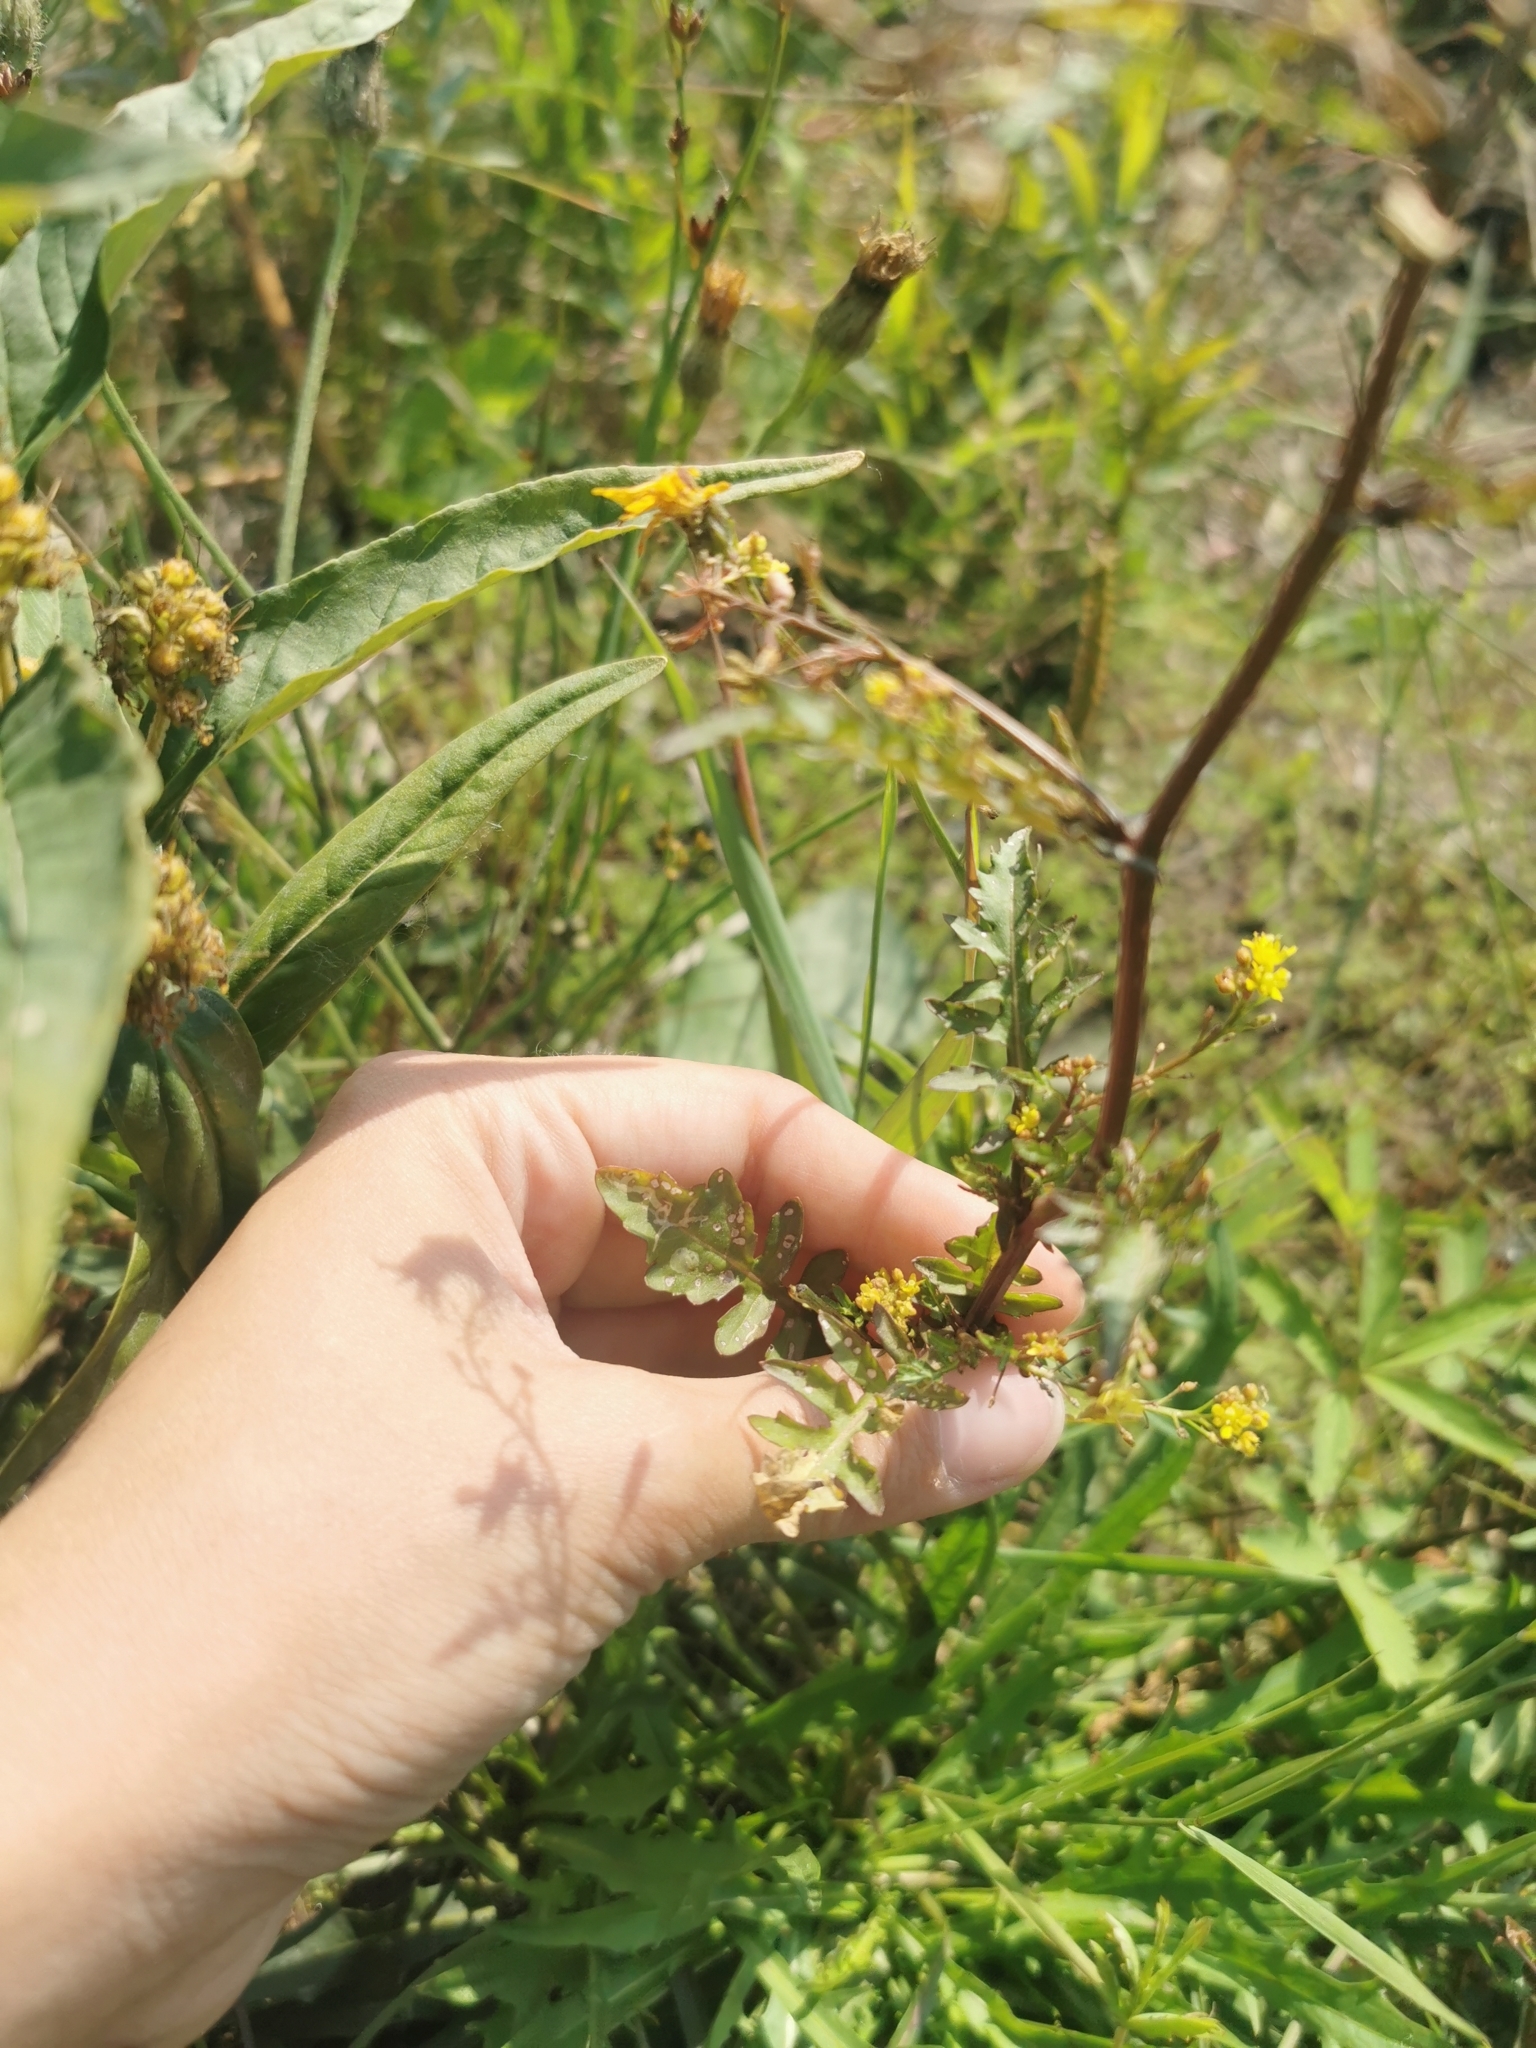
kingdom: Plantae
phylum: Tracheophyta
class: Magnoliopsida
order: Brassicales
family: Brassicaceae
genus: Rorippa
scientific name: Rorippa palustris
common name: Marsh yellow-cress
